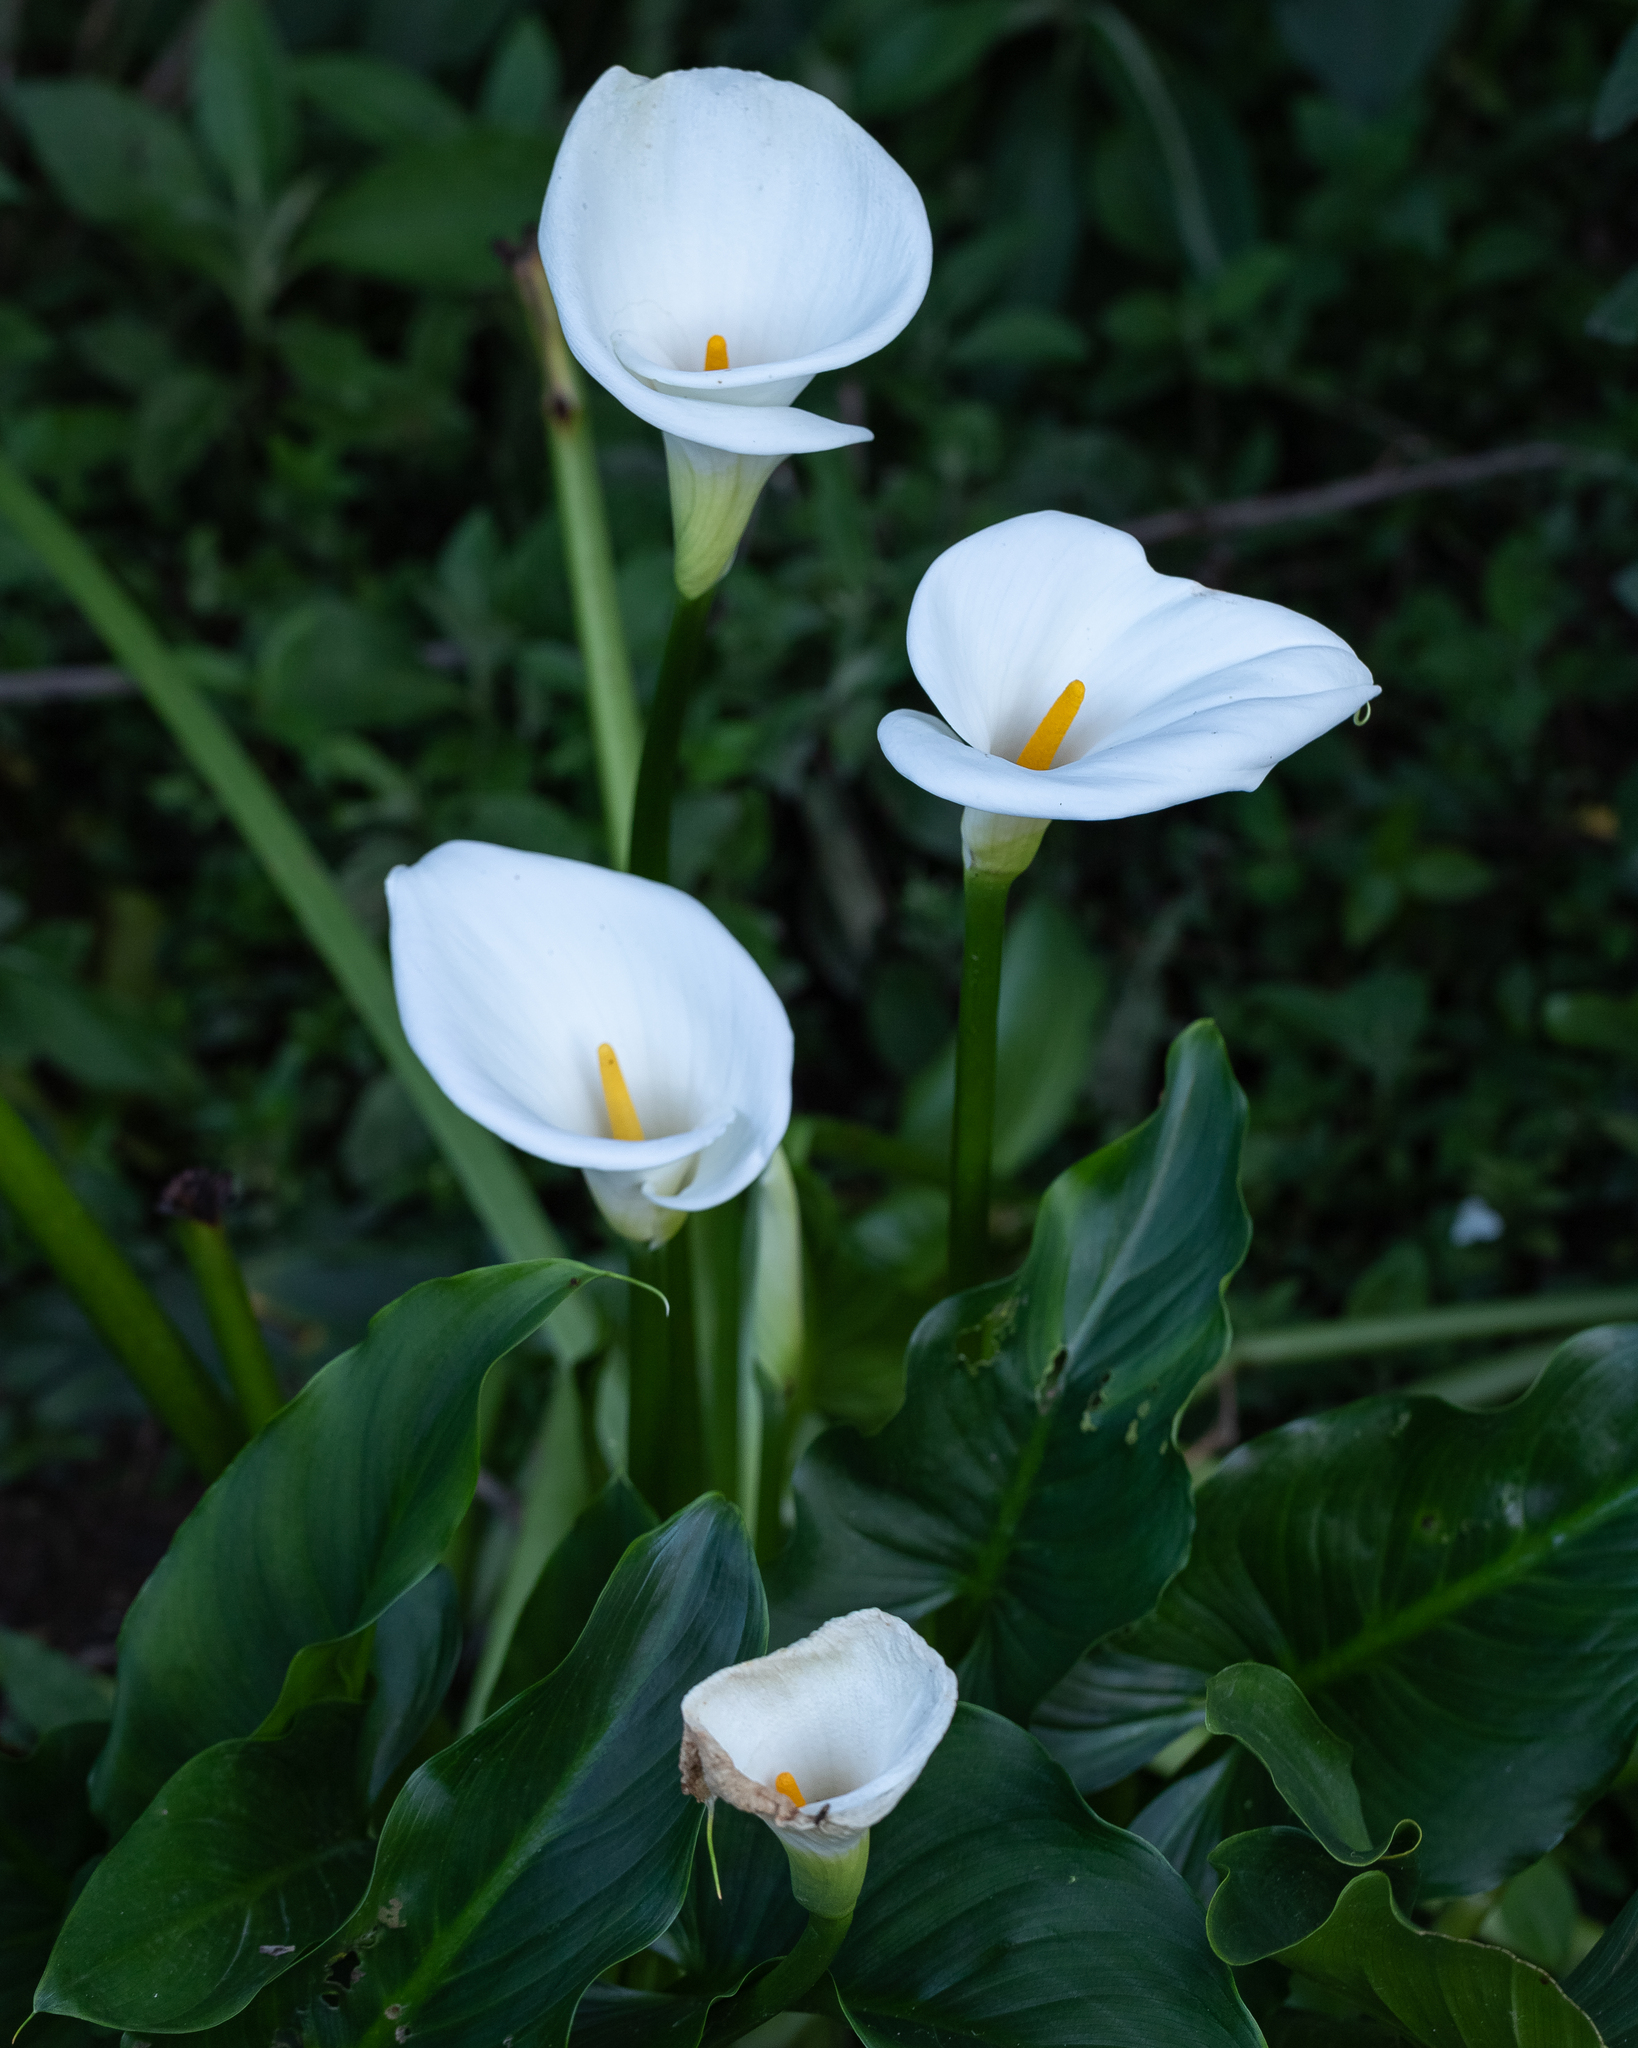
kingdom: Plantae
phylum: Tracheophyta
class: Liliopsida
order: Alismatales
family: Araceae
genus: Zantedeschia
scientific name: Zantedeschia aethiopica
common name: Altar-lily
